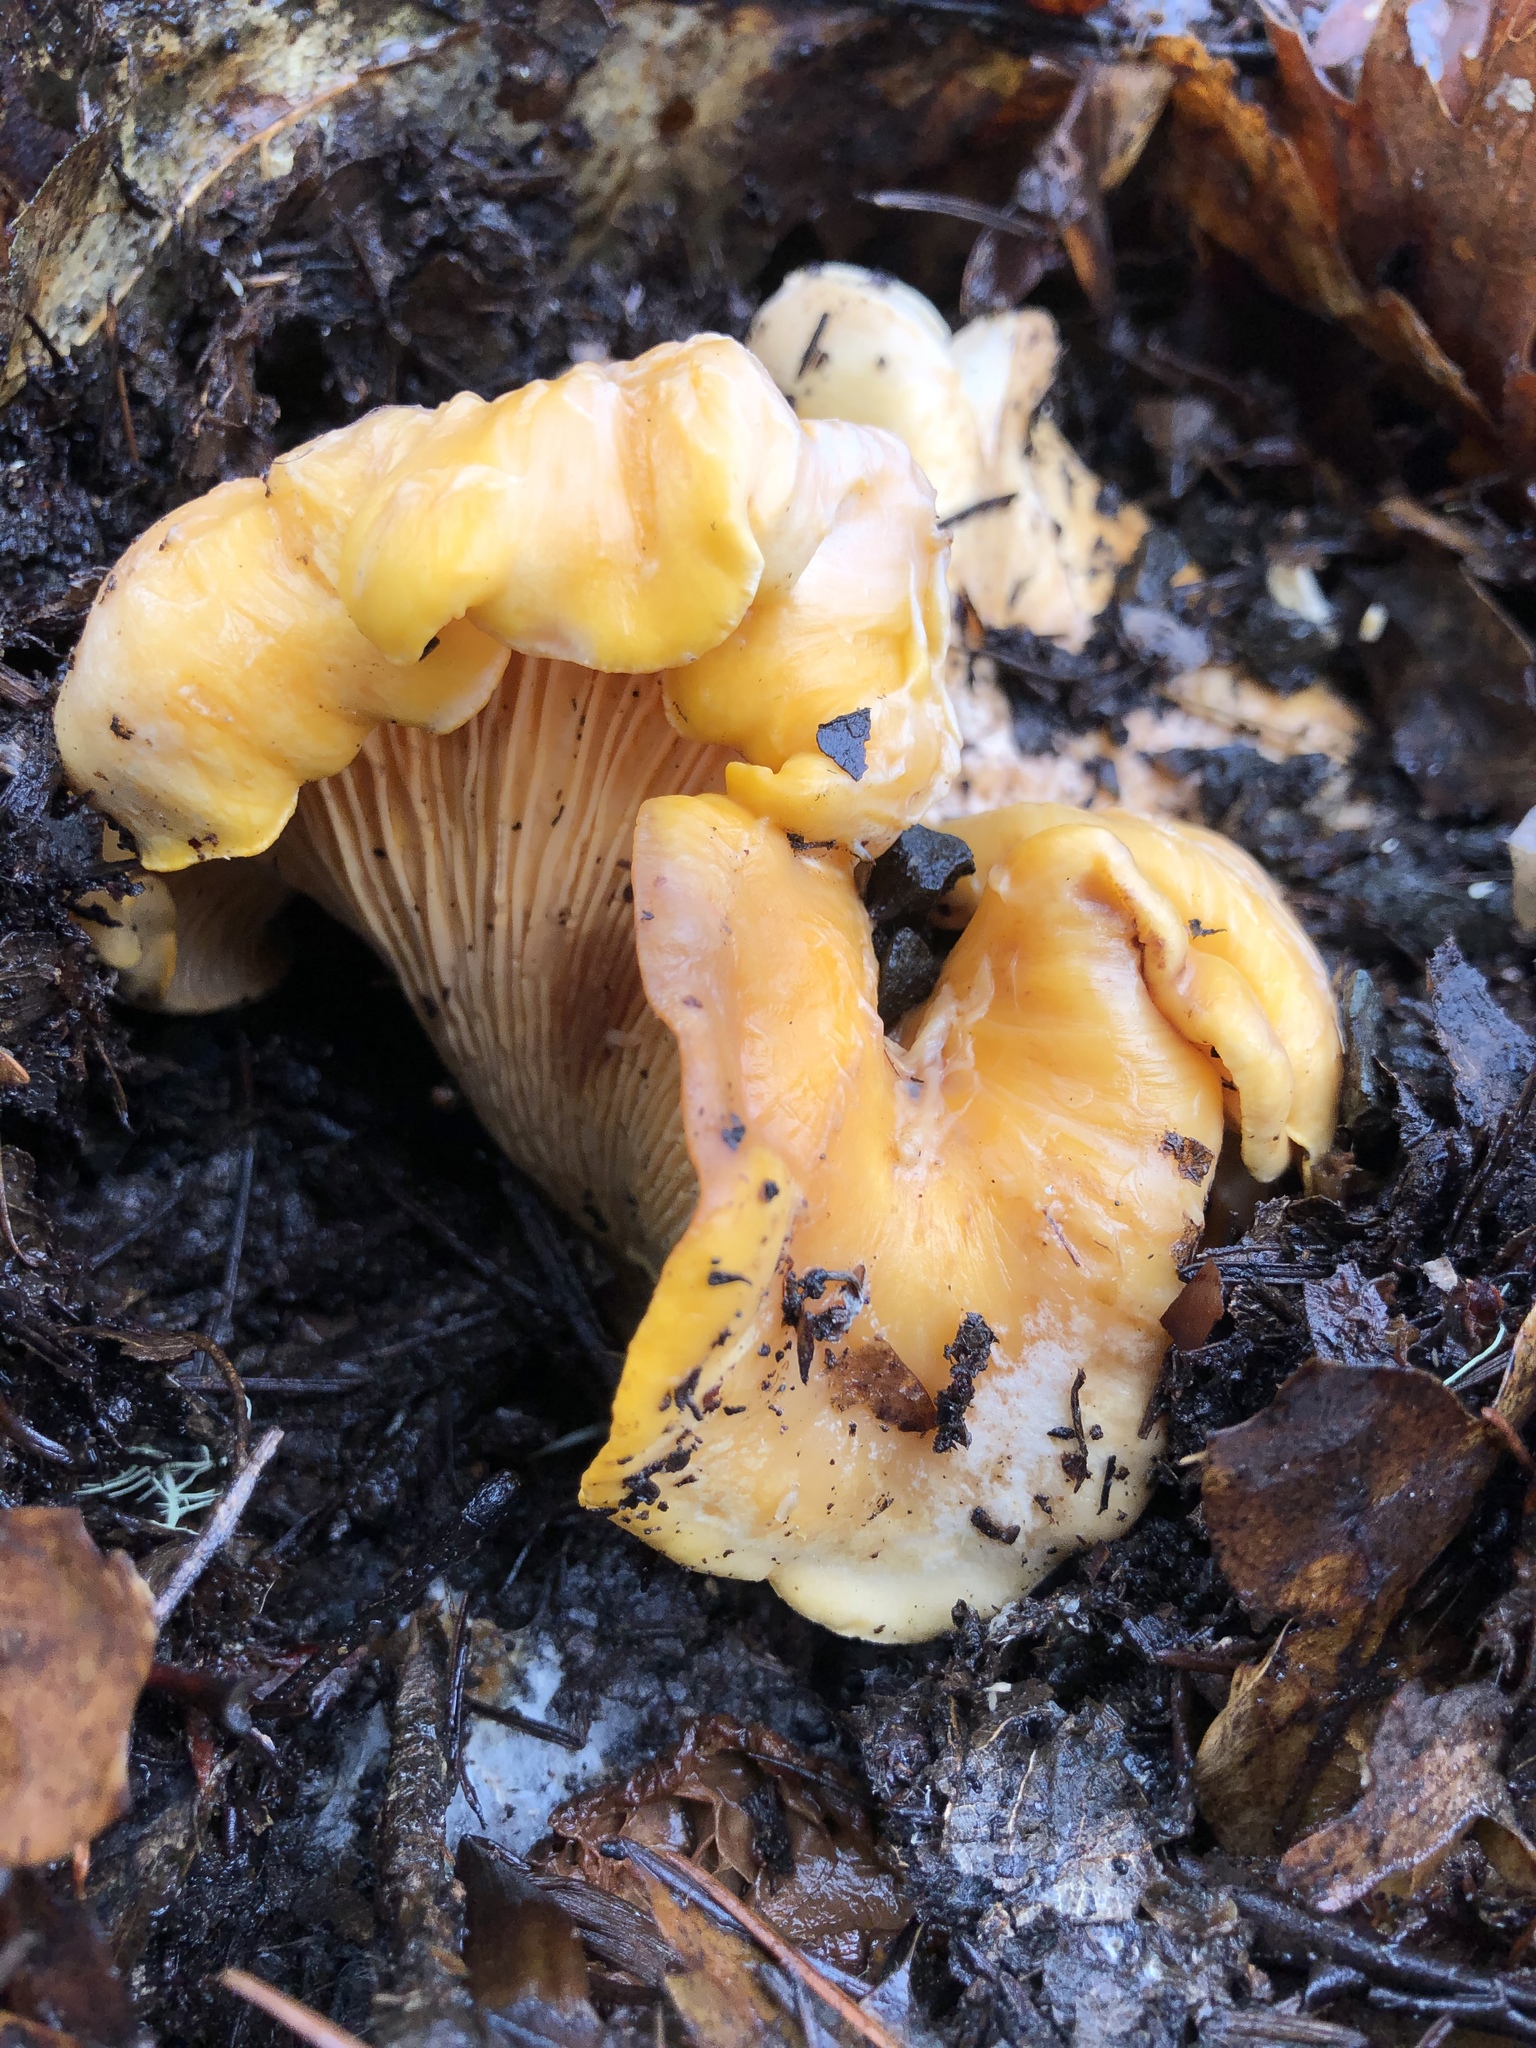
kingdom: Fungi
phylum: Basidiomycota
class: Agaricomycetes
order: Cantharellales
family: Hydnaceae
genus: Cantharellus
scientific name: Cantharellus californicus
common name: California golden chanterelle
